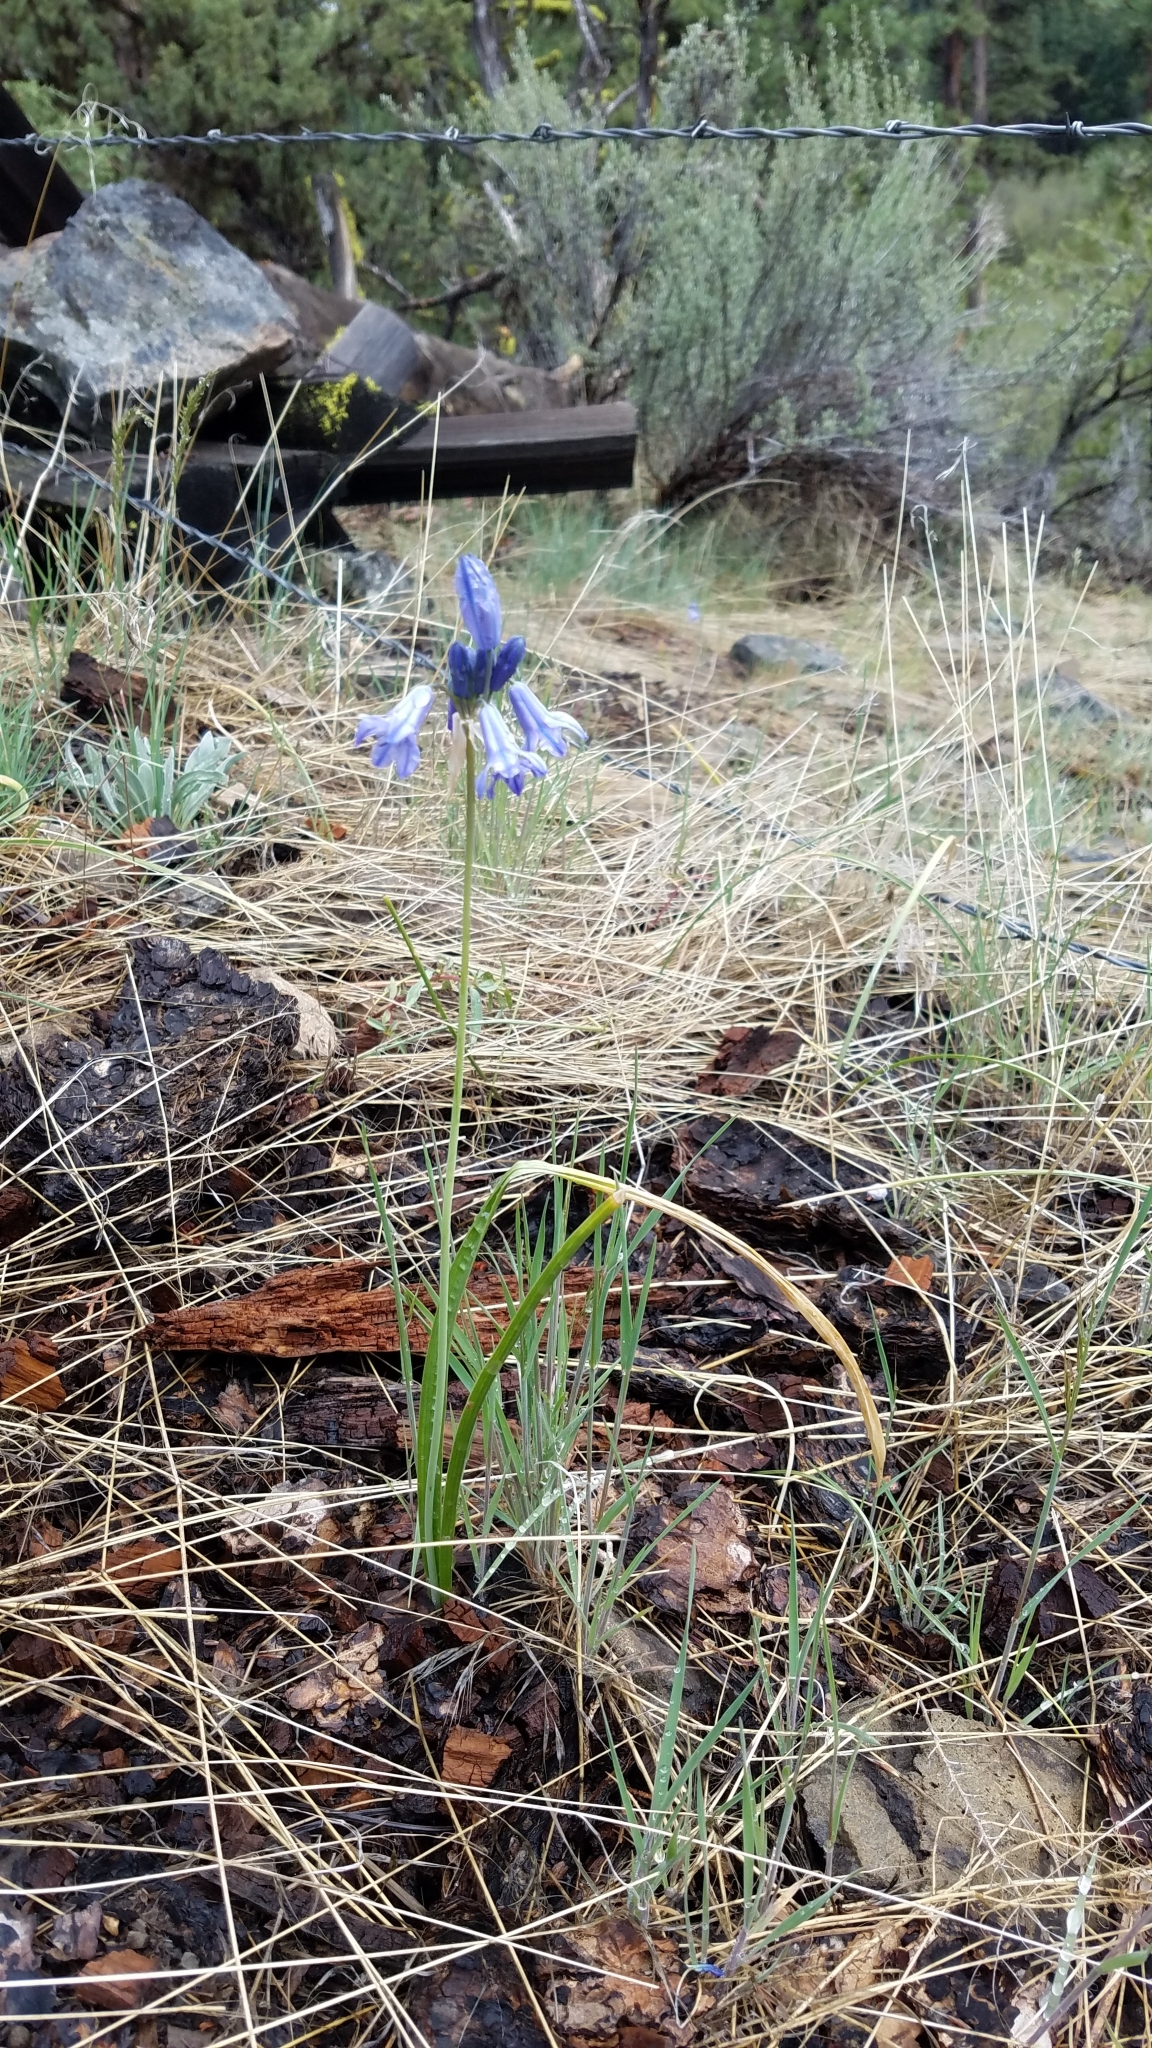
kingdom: Plantae
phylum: Tracheophyta
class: Liliopsida
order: Asparagales
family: Asparagaceae
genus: Triteleia
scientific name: Triteleia grandiflora
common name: Wild hyacinth
